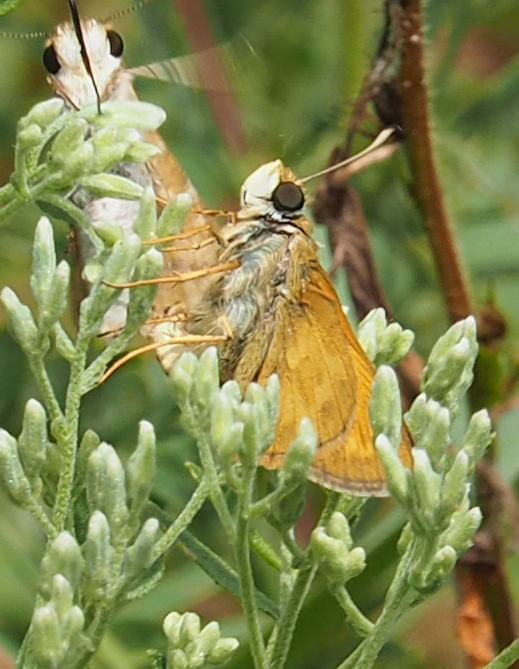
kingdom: Animalia
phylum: Arthropoda
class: Insecta
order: Lepidoptera
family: Hesperiidae
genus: Atalopedes
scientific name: Atalopedes
